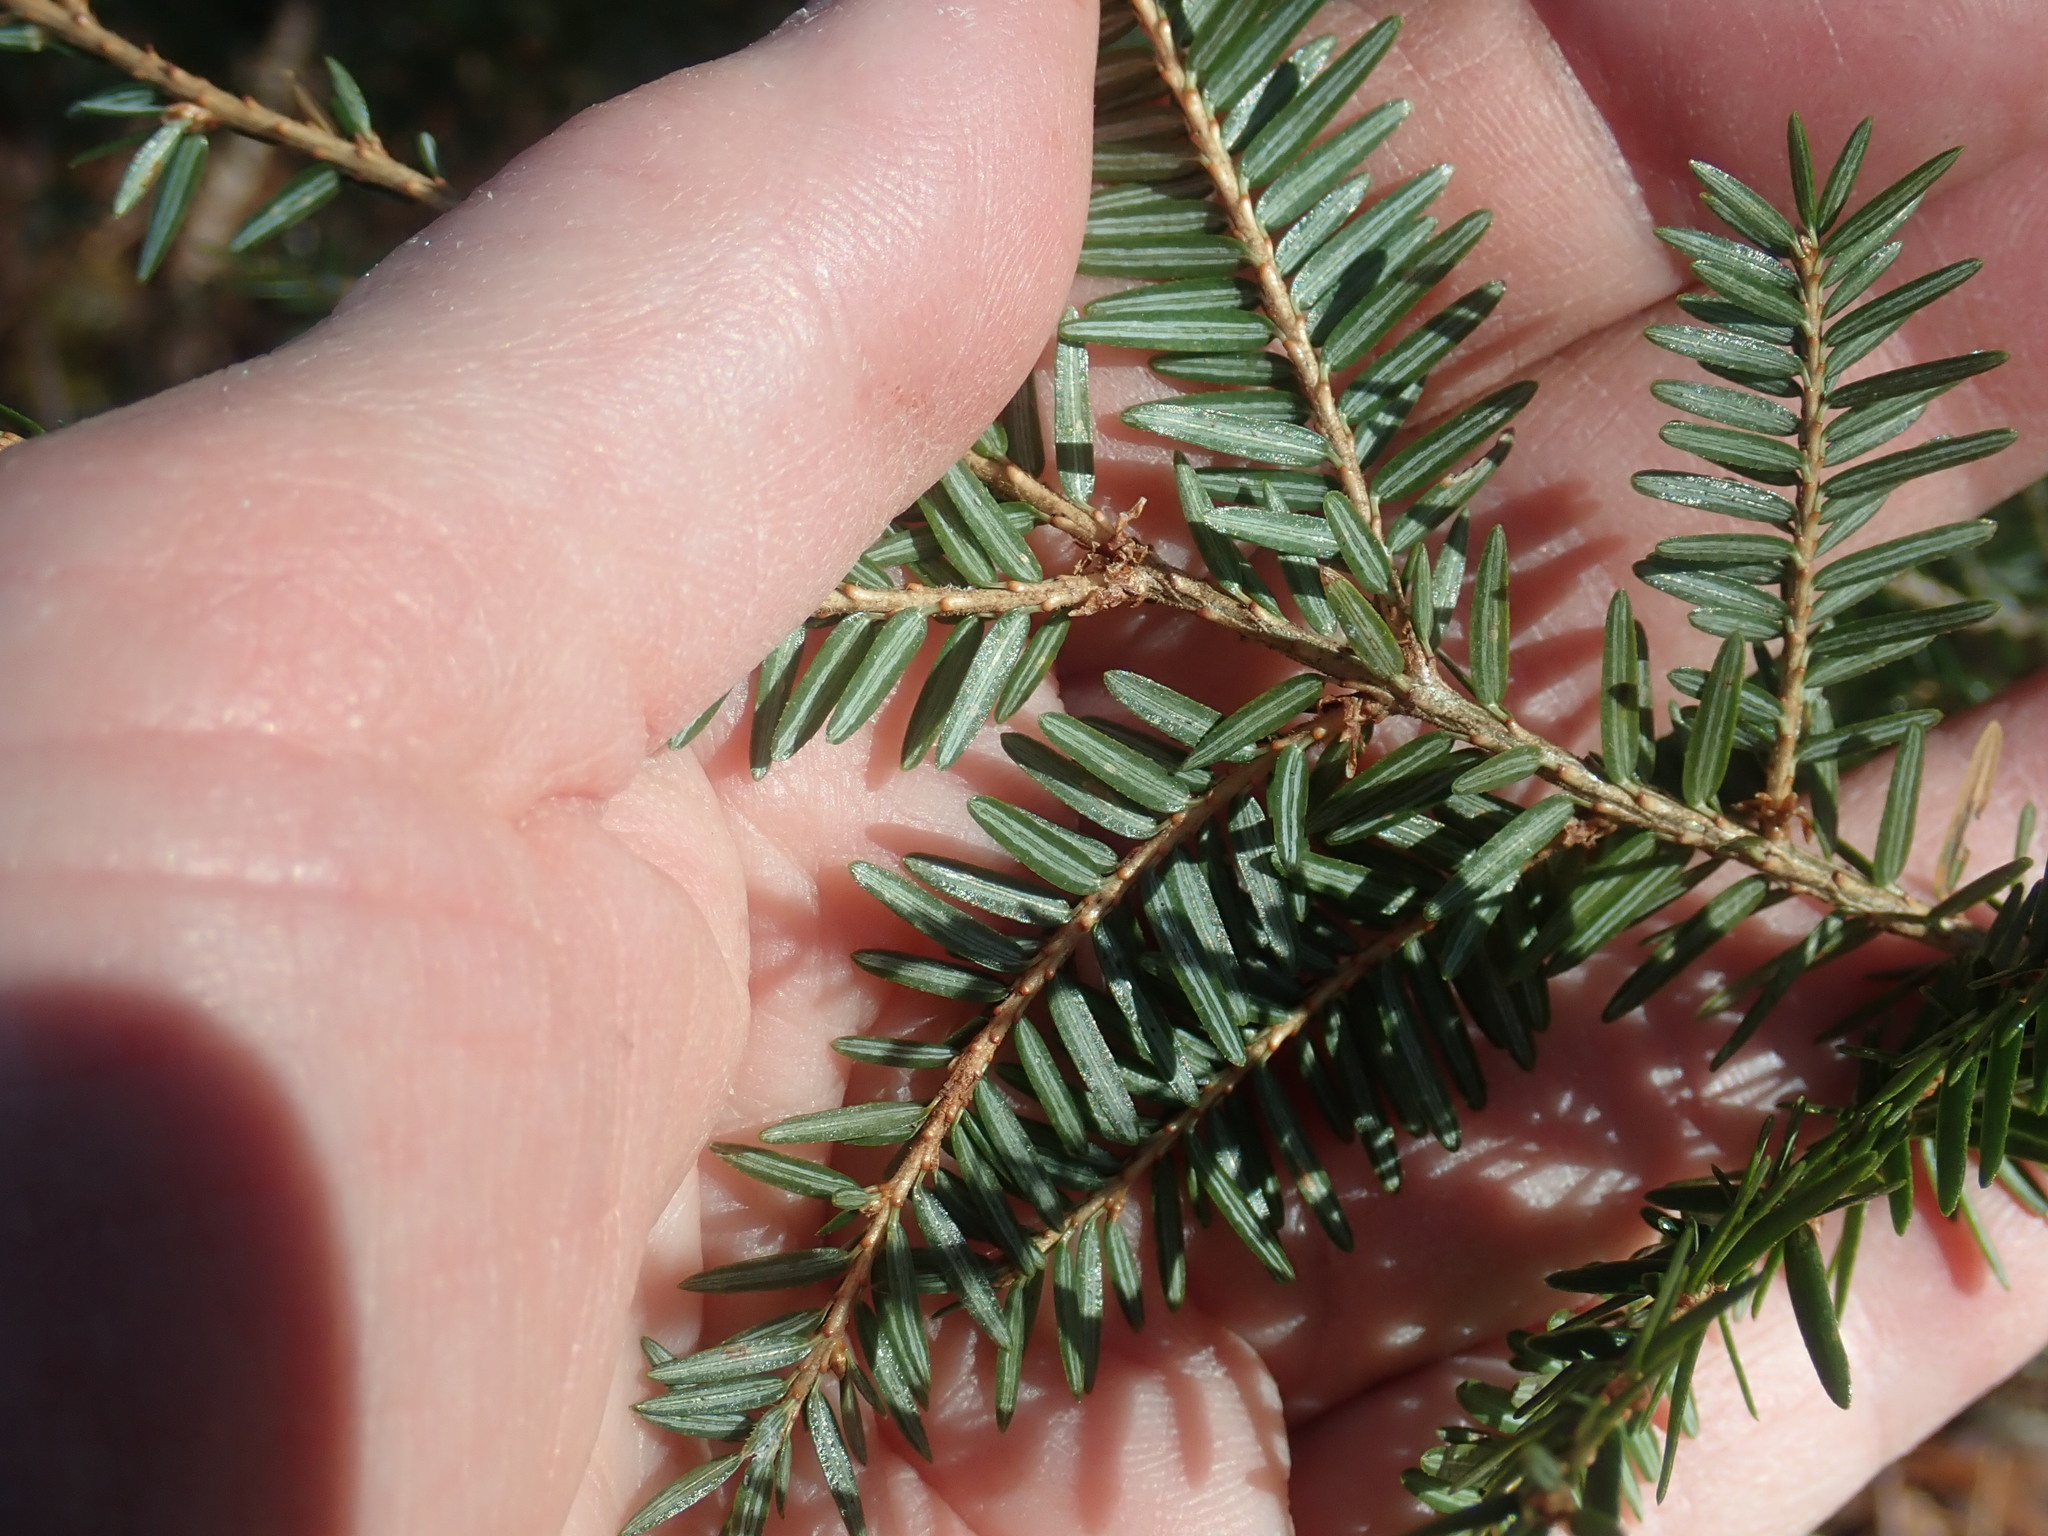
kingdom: Plantae
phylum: Tracheophyta
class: Pinopsida
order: Pinales
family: Pinaceae
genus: Tsuga
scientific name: Tsuga canadensis
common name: Eastern hemlock
